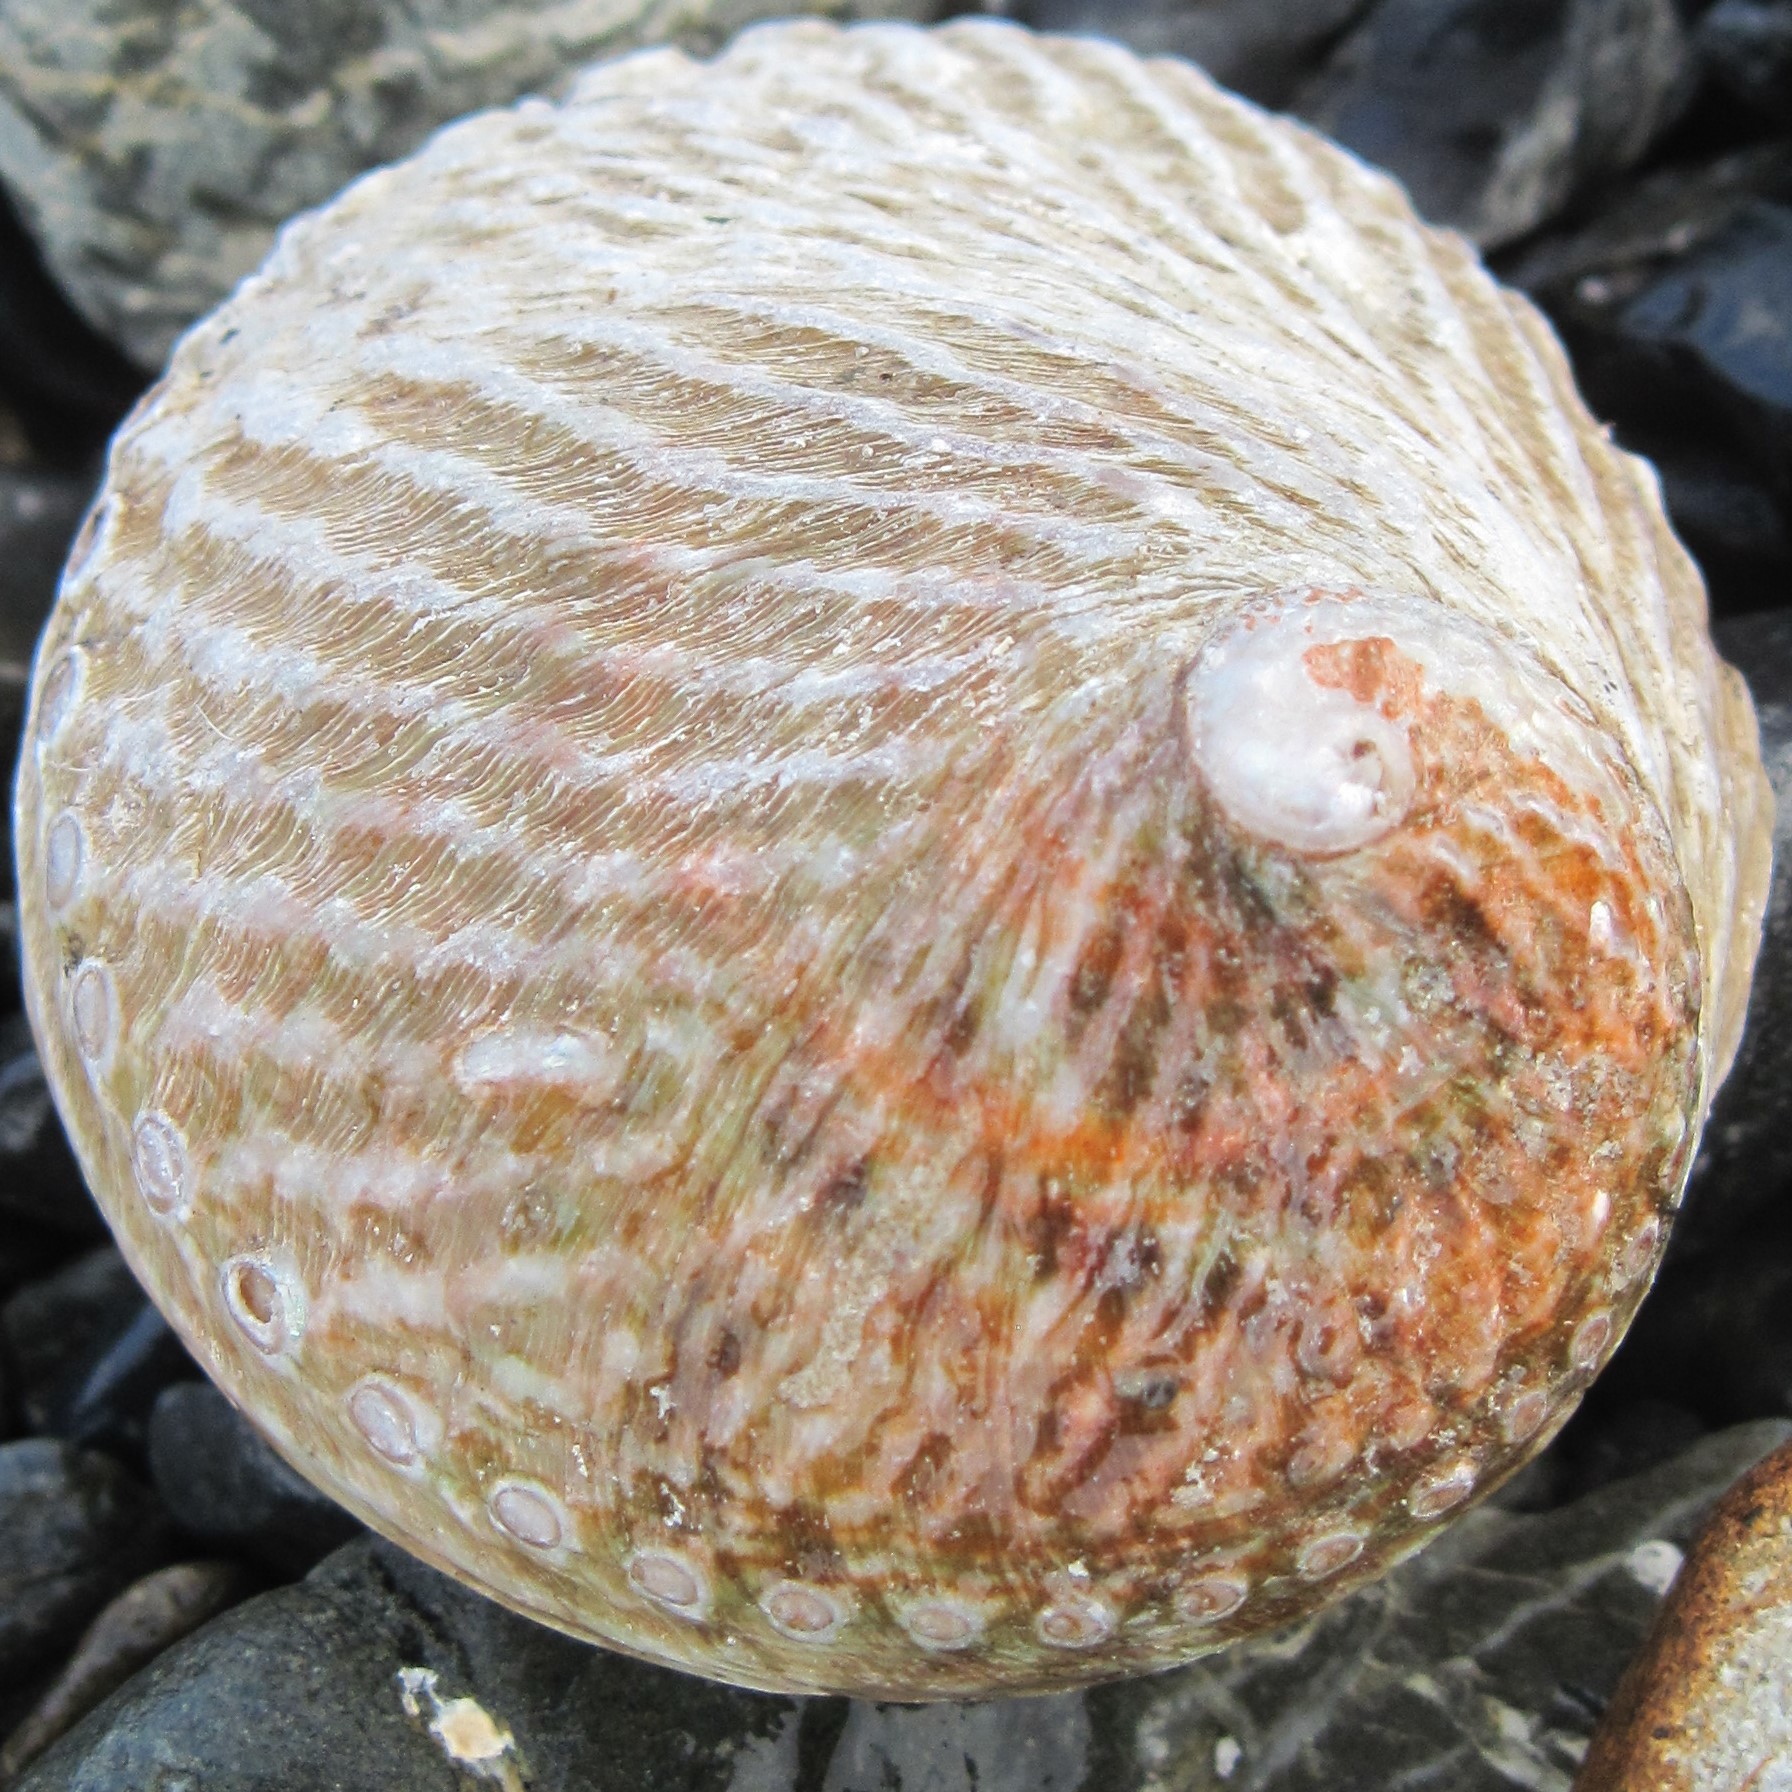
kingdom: Animalia
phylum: Mollusca
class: Gastropoda
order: Lepetellida
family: Haliotidae
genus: Haliotis
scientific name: Haliotis australis
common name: Silver abalone
